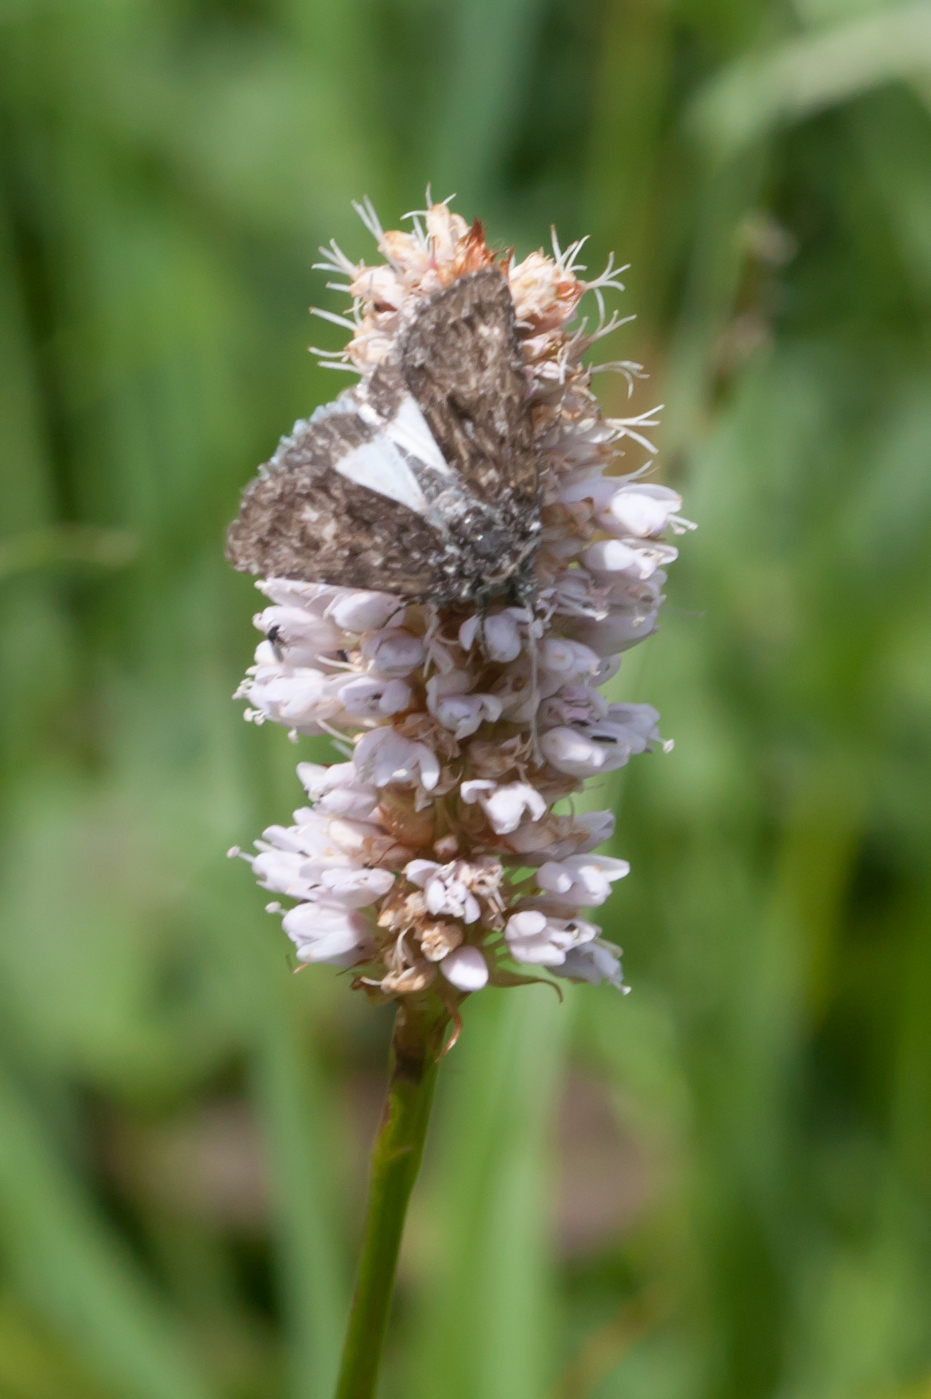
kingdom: Animalia
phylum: Arthropoda
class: Insecta
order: Lepidoptera
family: Noctuidae
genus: Sympistis
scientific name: Sympistis heliophila
